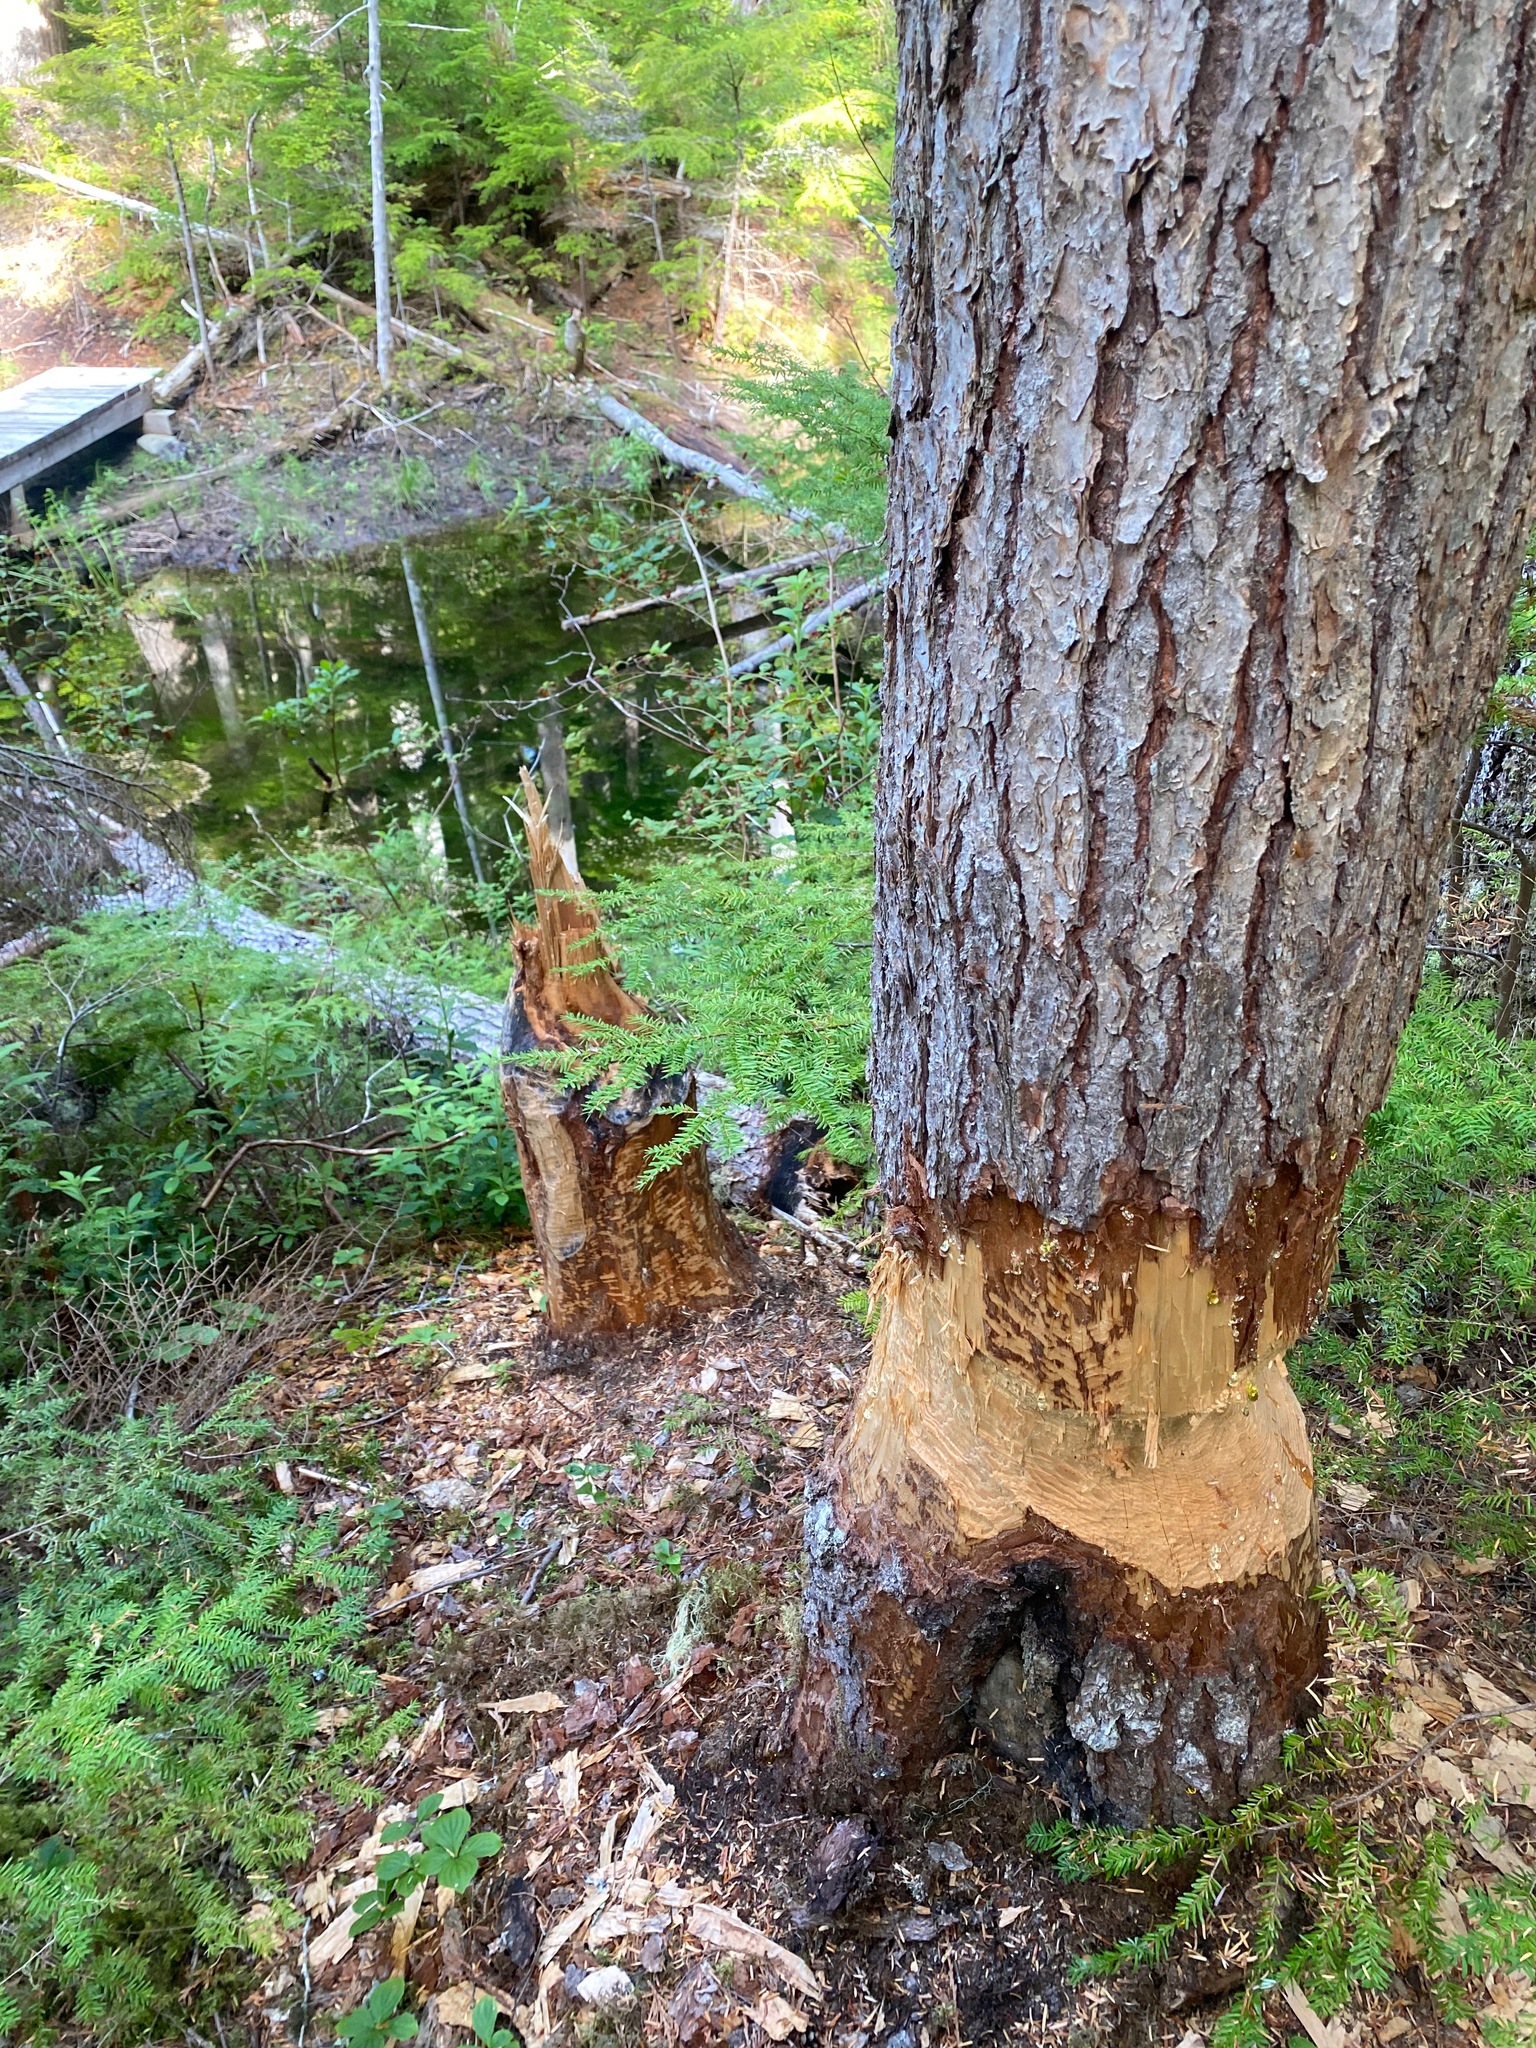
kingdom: Animalia
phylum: Chordata
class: Mammalia
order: Rodentia
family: Castoridae
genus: Castor
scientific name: Castor canadensis
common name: American beaver
